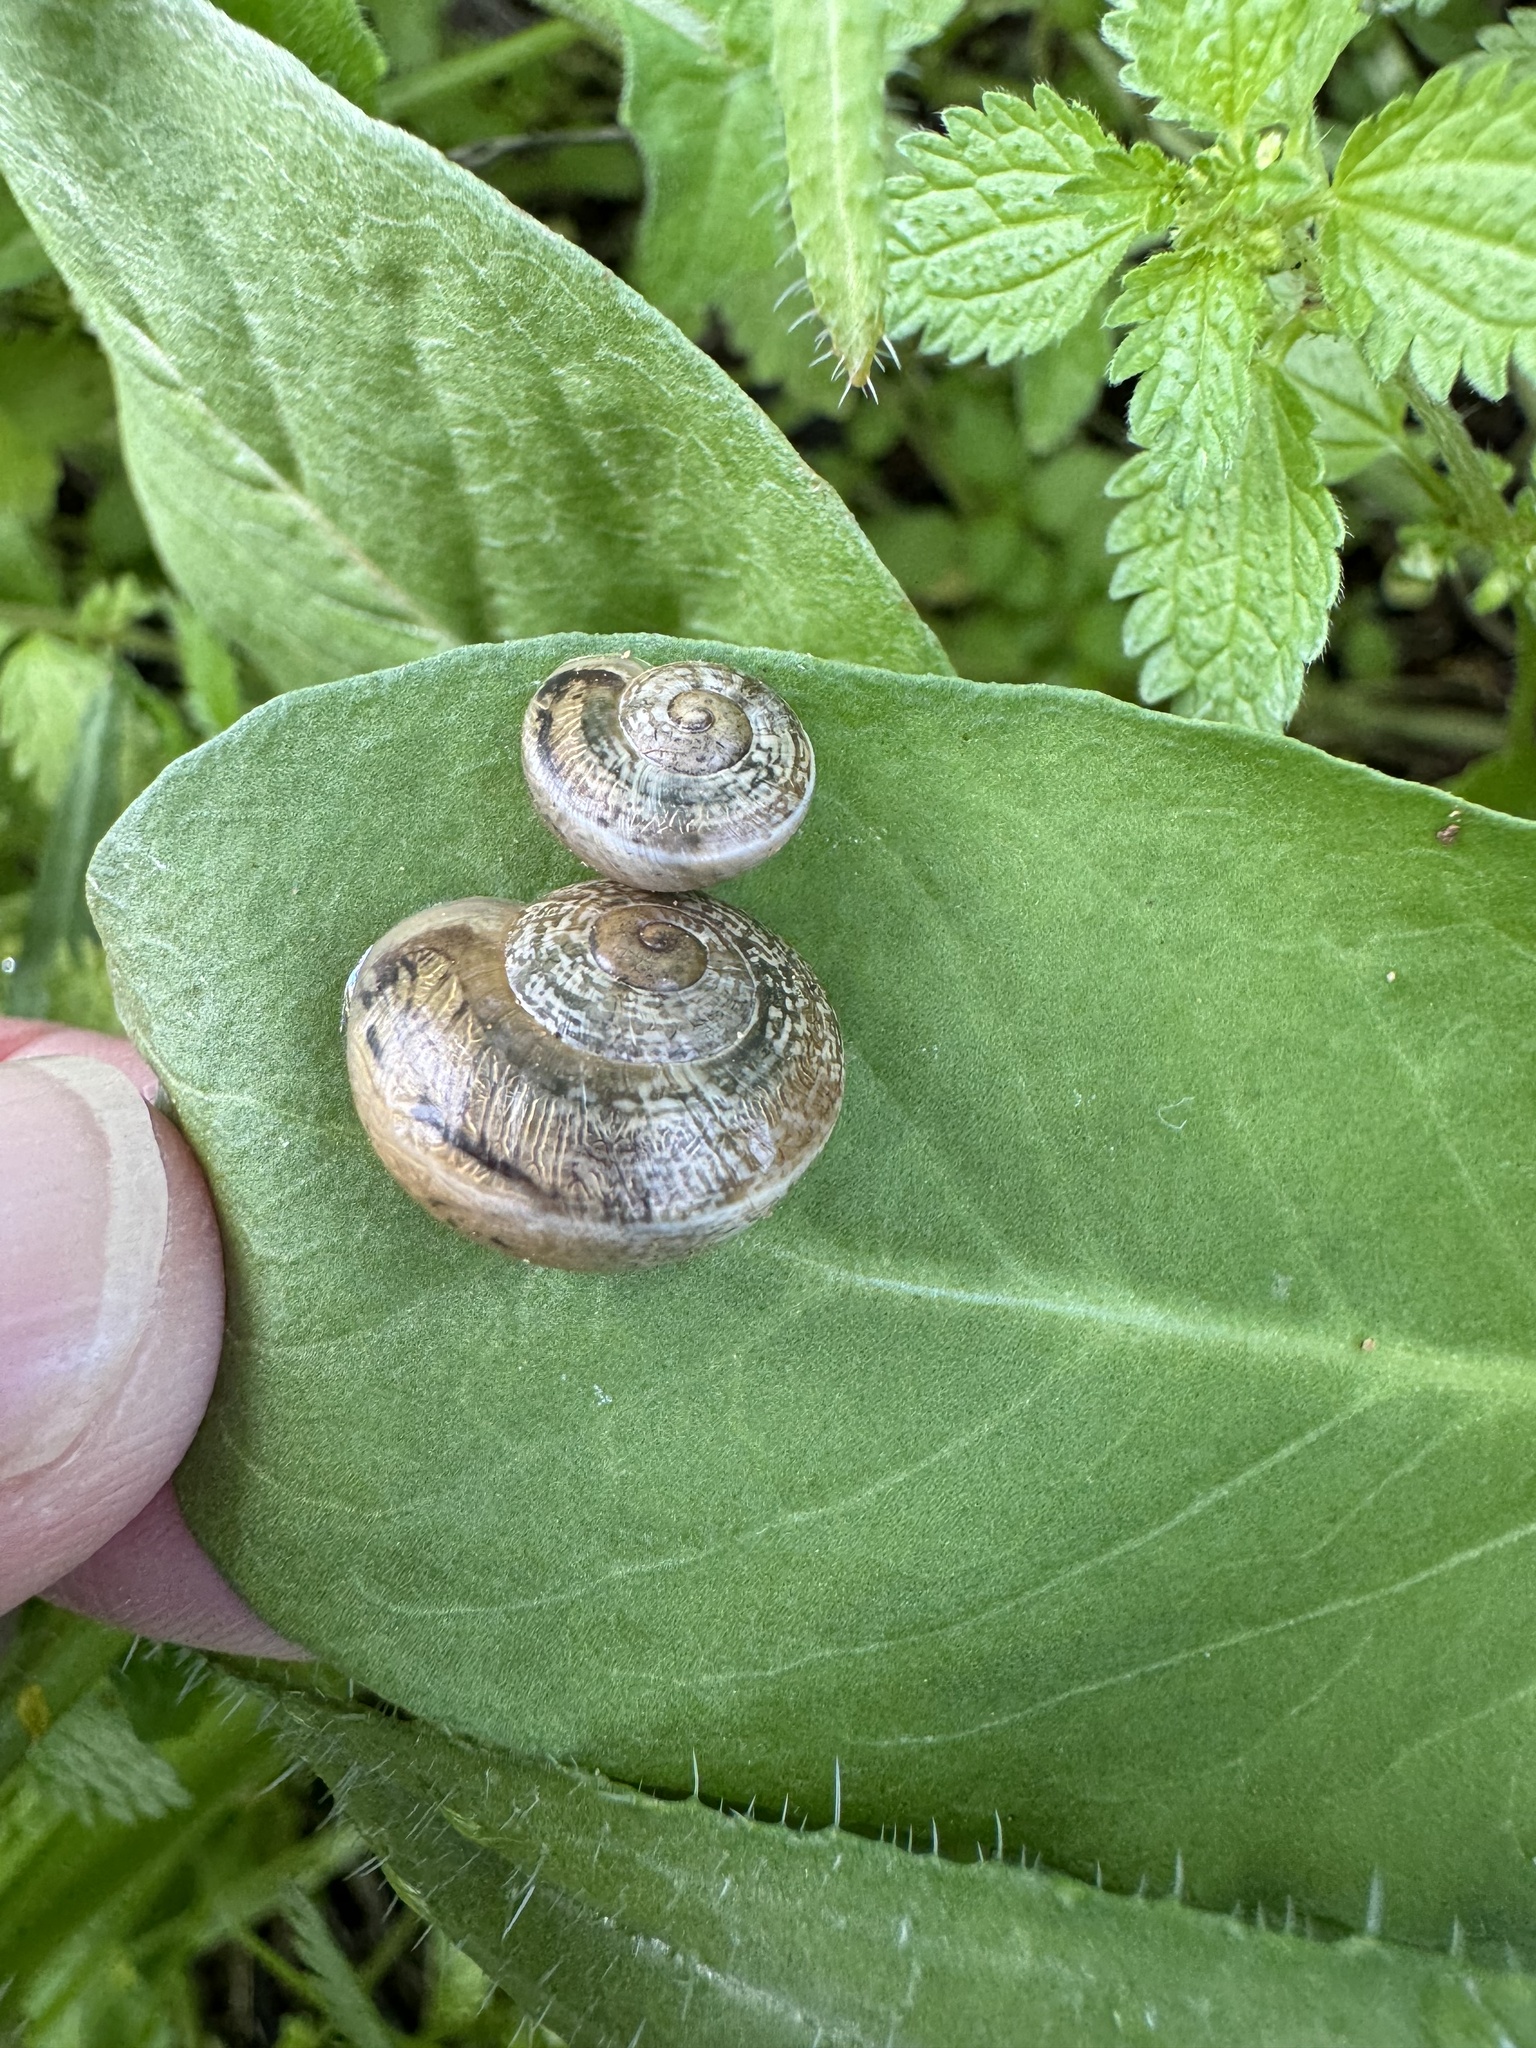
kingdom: Animalia
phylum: Mollusca
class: Gastropoda
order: Stylommatophora
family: Helicidae
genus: Otala
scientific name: Otala lactea
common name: Milk snail
